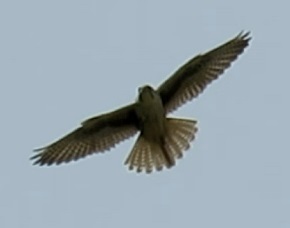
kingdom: Animalia
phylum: Chordata
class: Aves
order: Falconiformes
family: Falconidae
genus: Falco
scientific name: Falco mexicanus
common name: Prairie falcon
